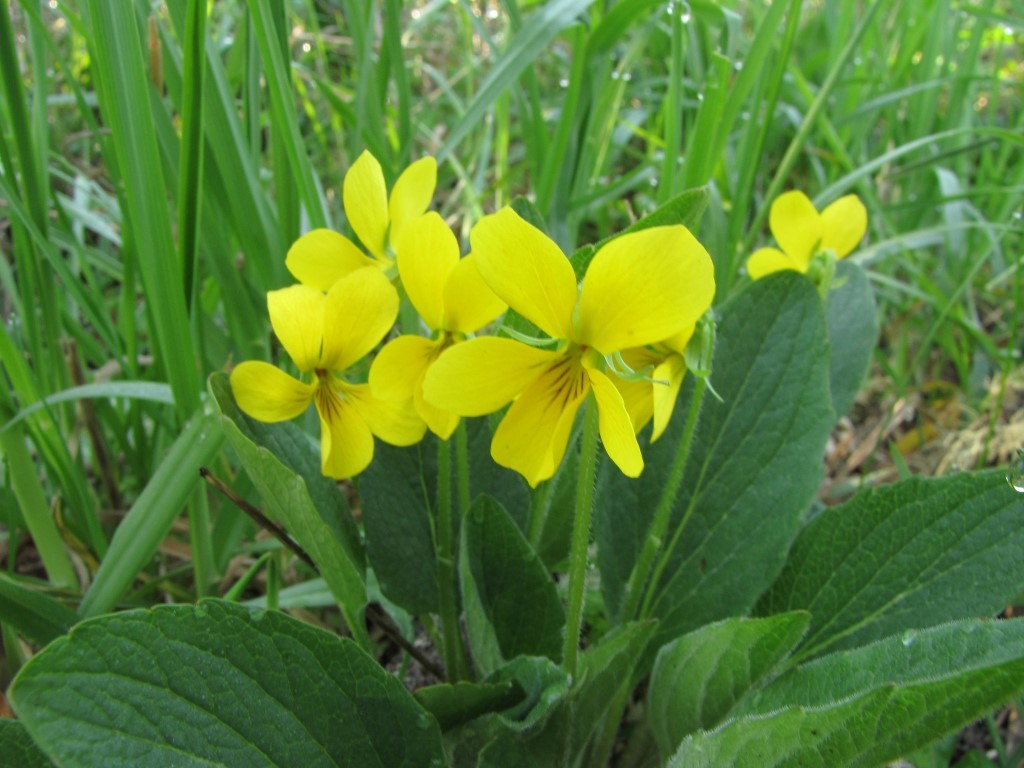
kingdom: Plantae
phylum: Tracheophyta
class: Magnoliopsida
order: Malpighiales
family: Violaceae
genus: Viola
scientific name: Viola praemorsa
